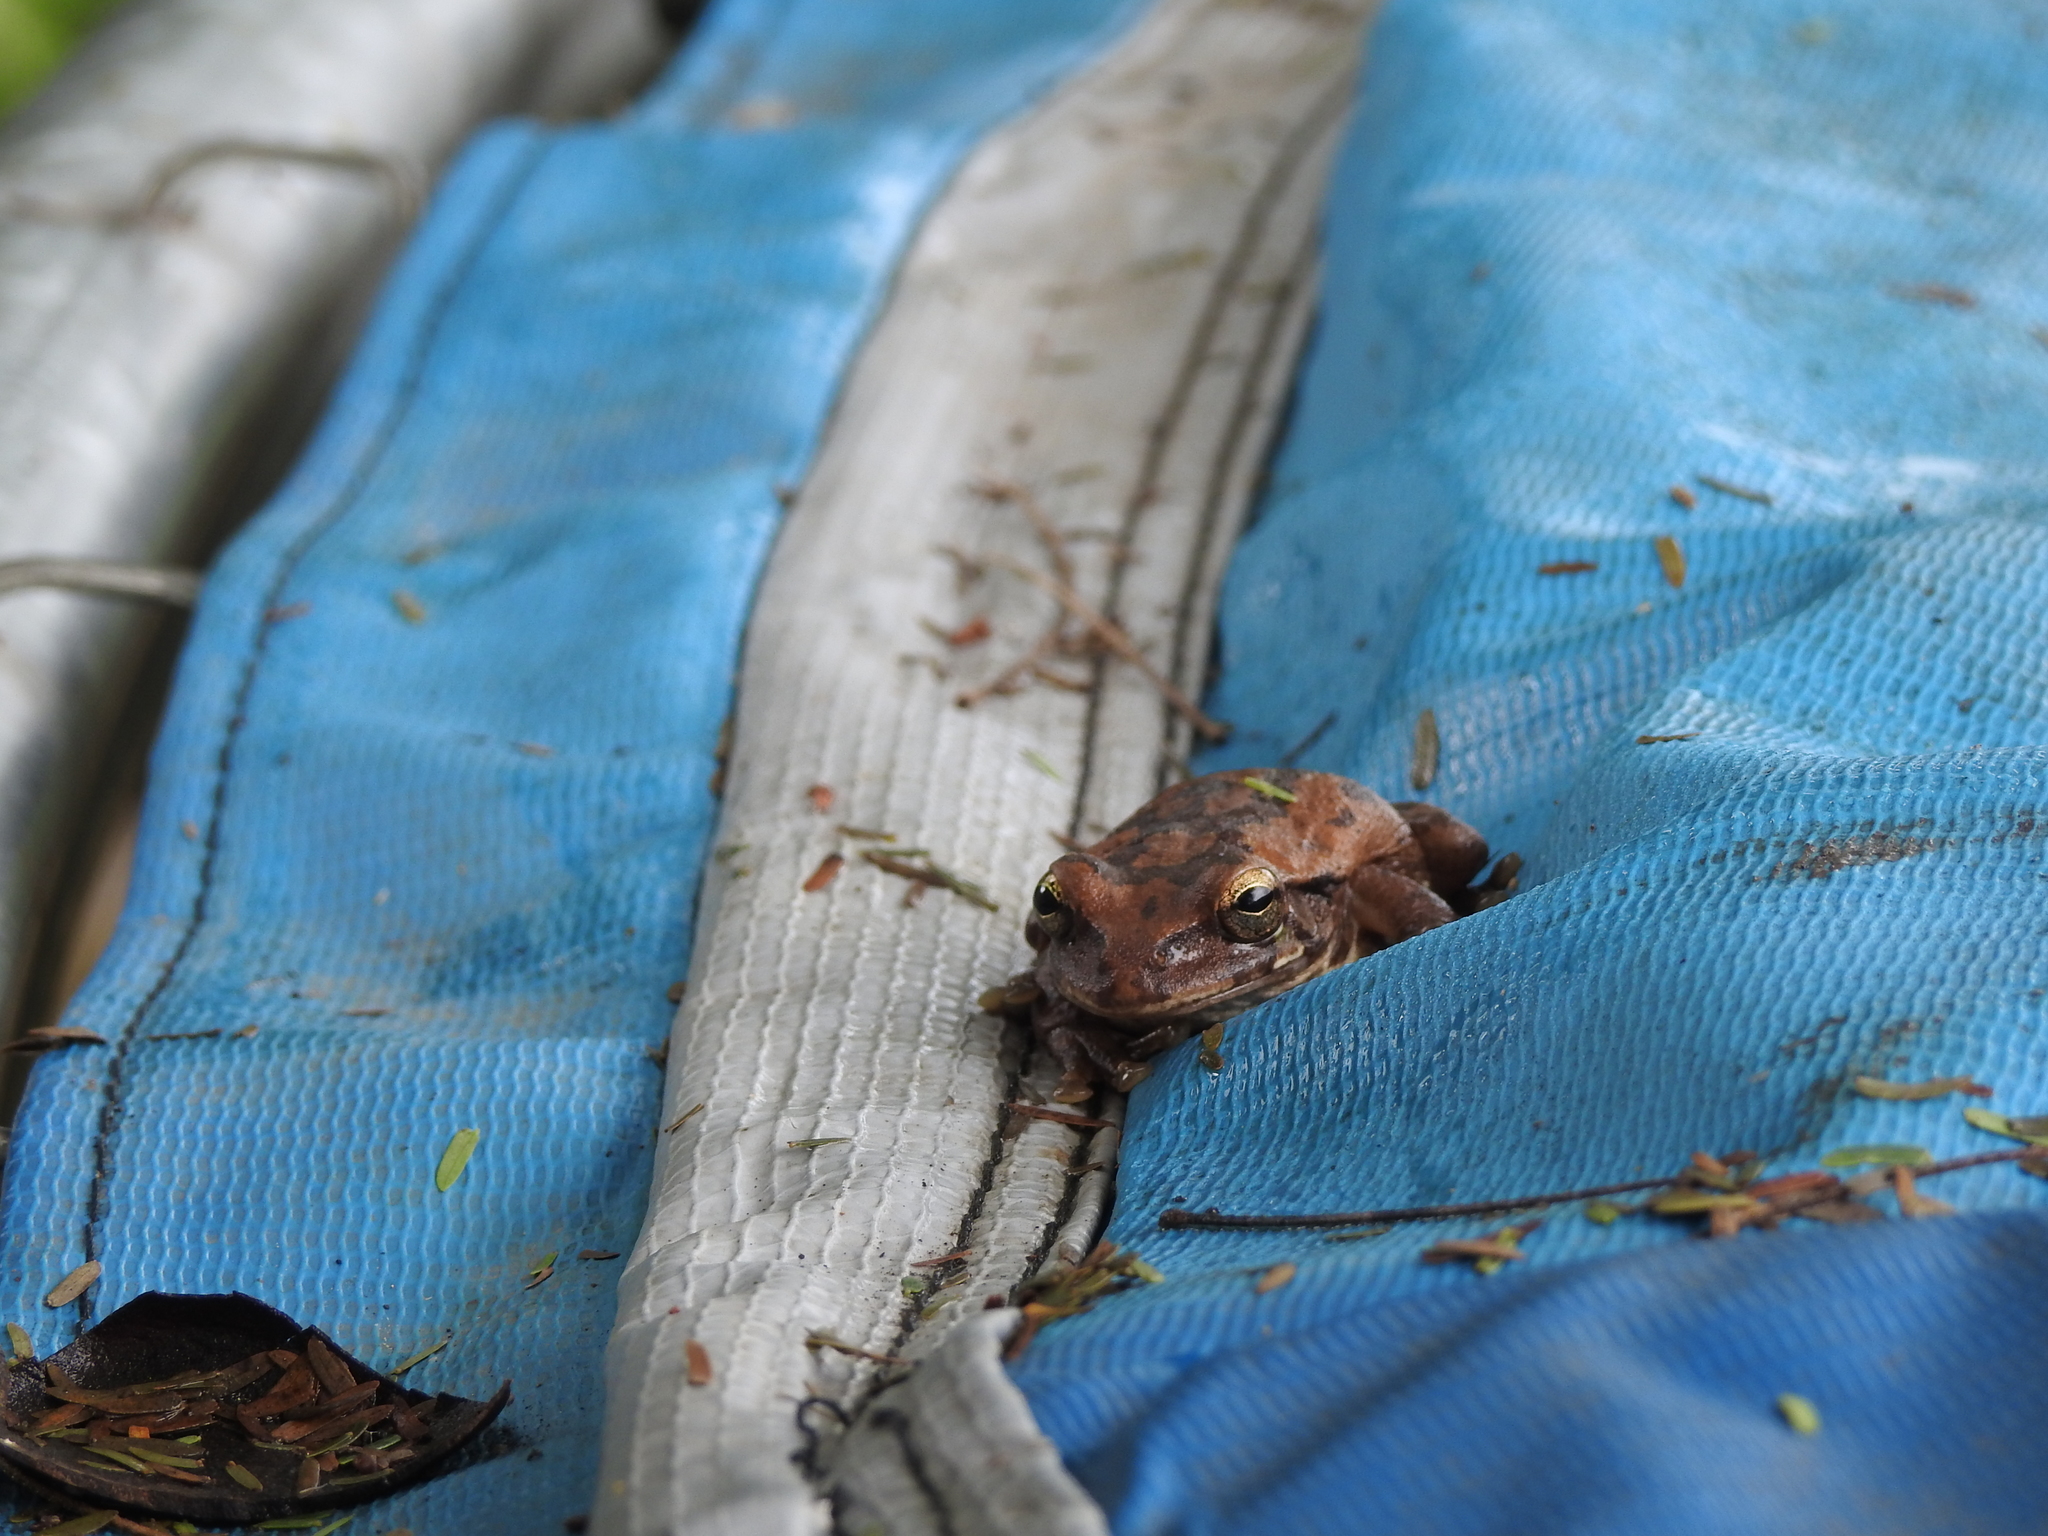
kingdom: Animalia
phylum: Chordata
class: Amphibia
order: Anura
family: Hylidae
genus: Smilisca
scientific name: Smilisca baudinii
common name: Mexican smilisca
